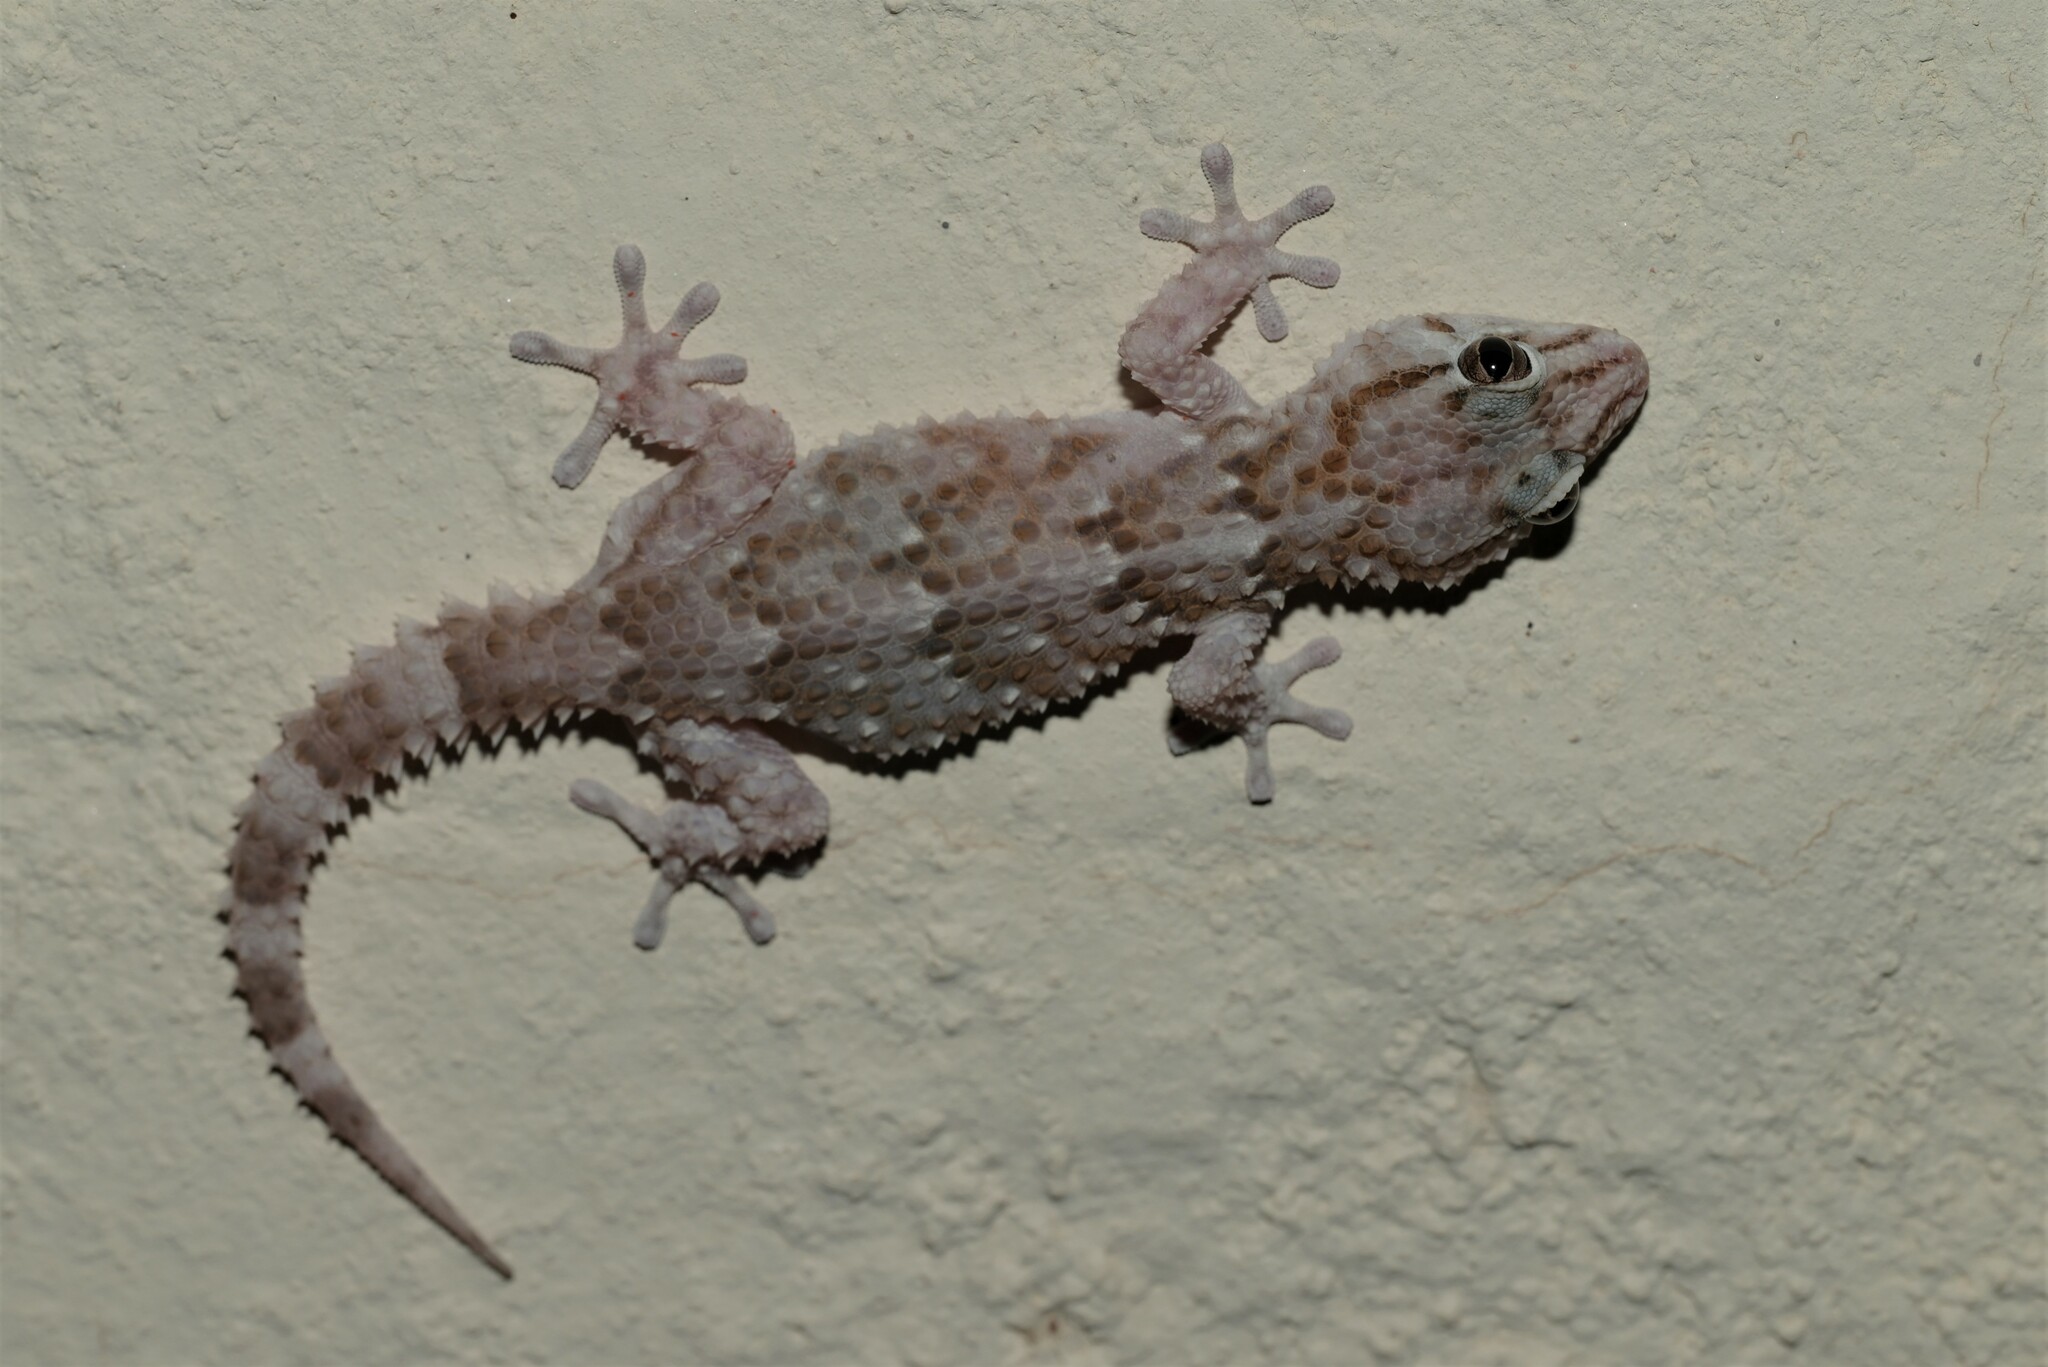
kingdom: Animalia
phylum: Chordata
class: Squamata
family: Gekkonidae
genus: Chondrodactylus
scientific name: Chondrodactylus bibronii
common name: Bibron's gecko
